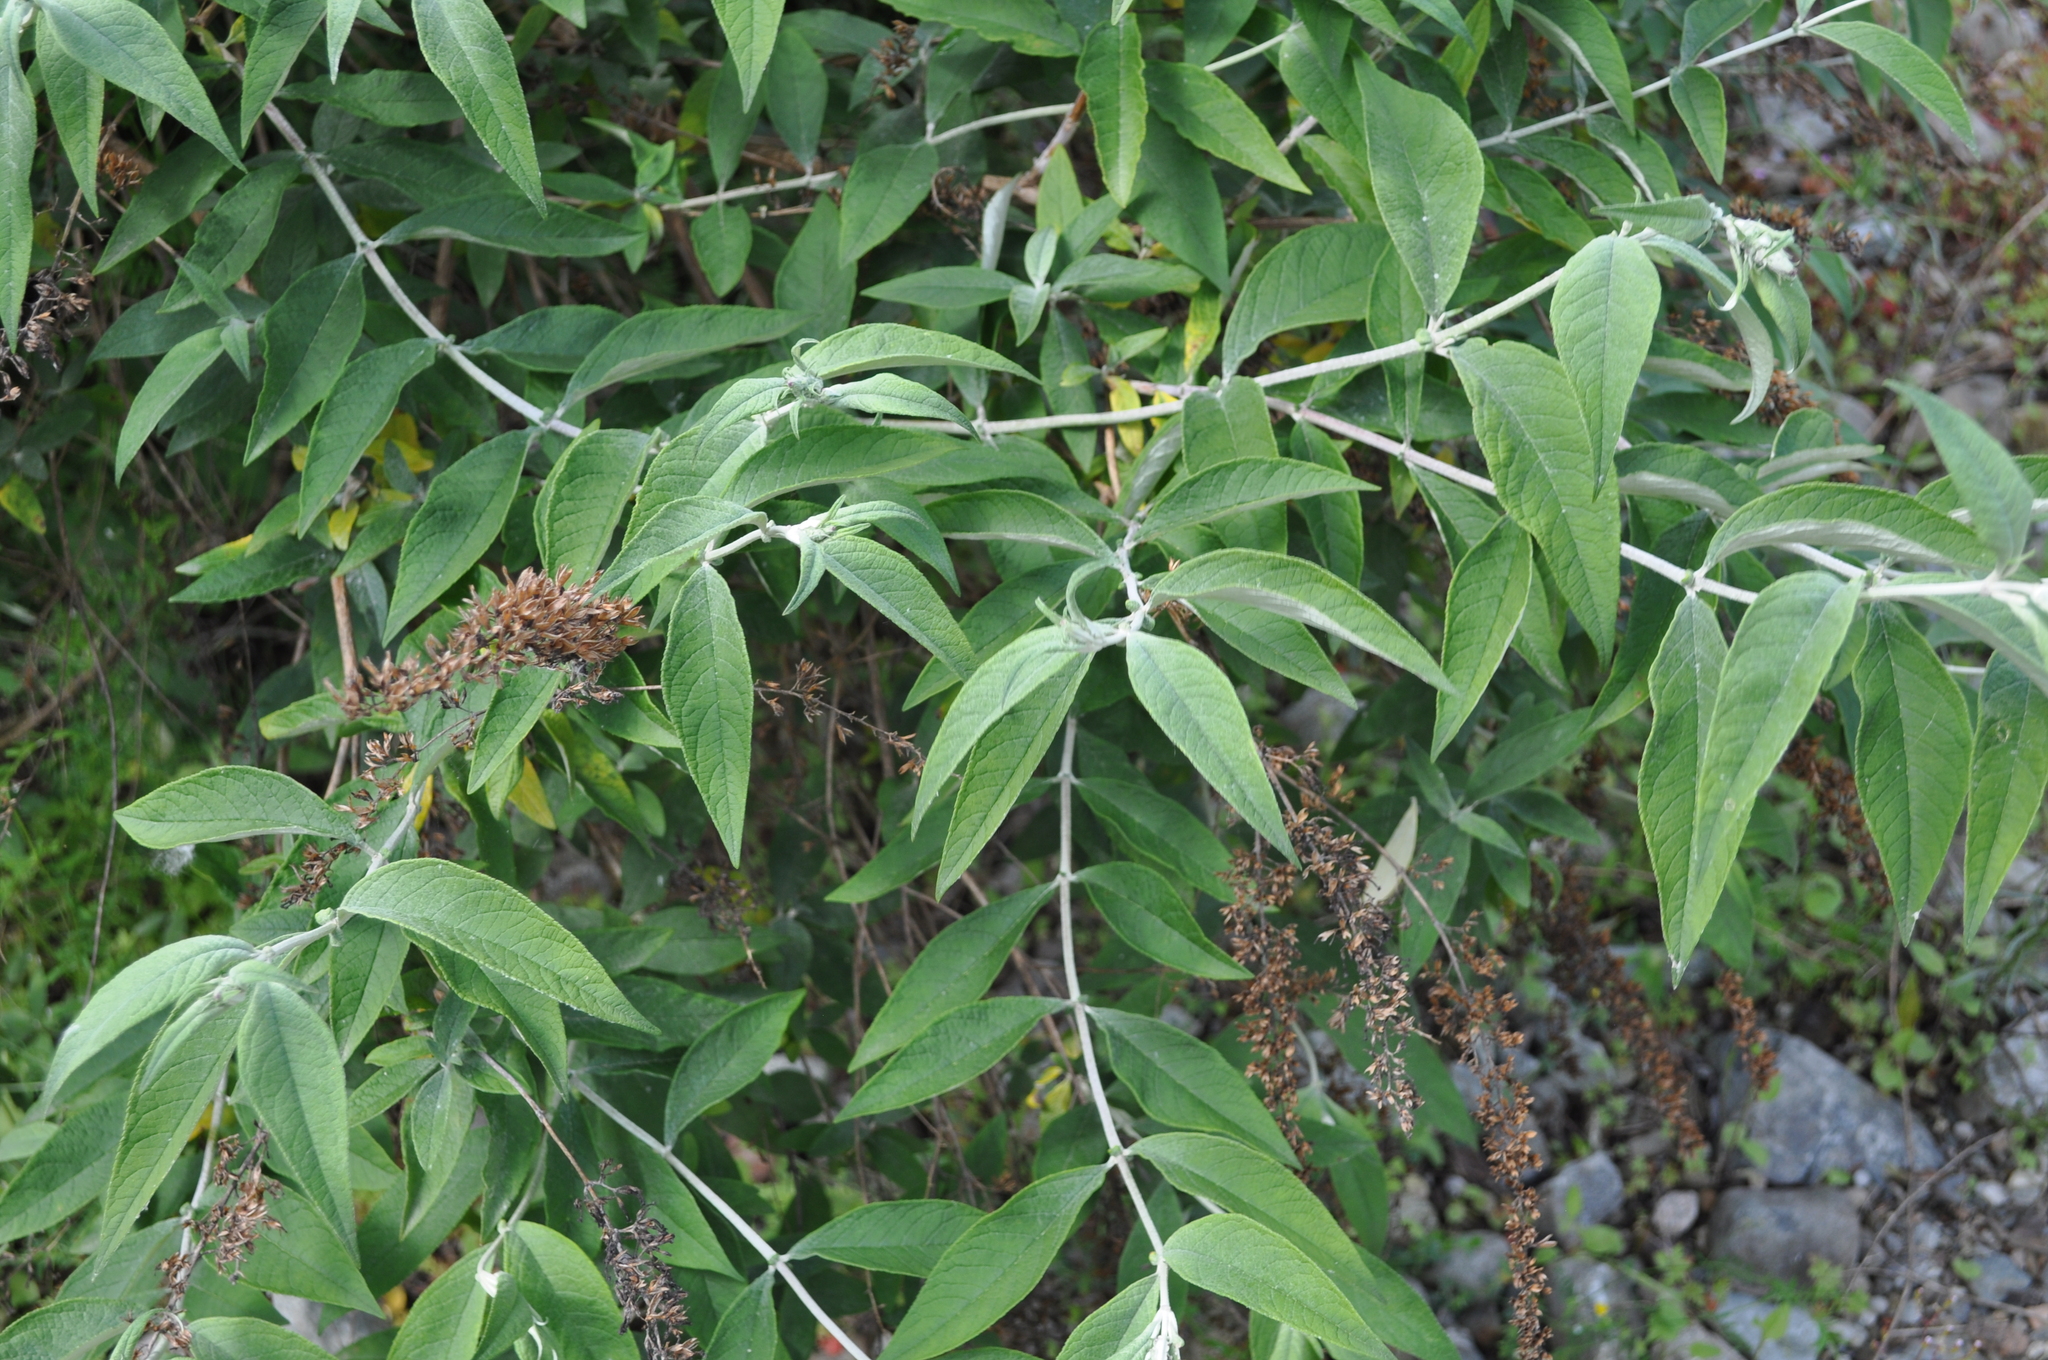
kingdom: Plantae
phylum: Tracheophyta
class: Magnoliopsida
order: Lamiales
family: Scrophulariaceae
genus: Buddleja
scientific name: Buddleja davidii
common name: Butterfly-bush
